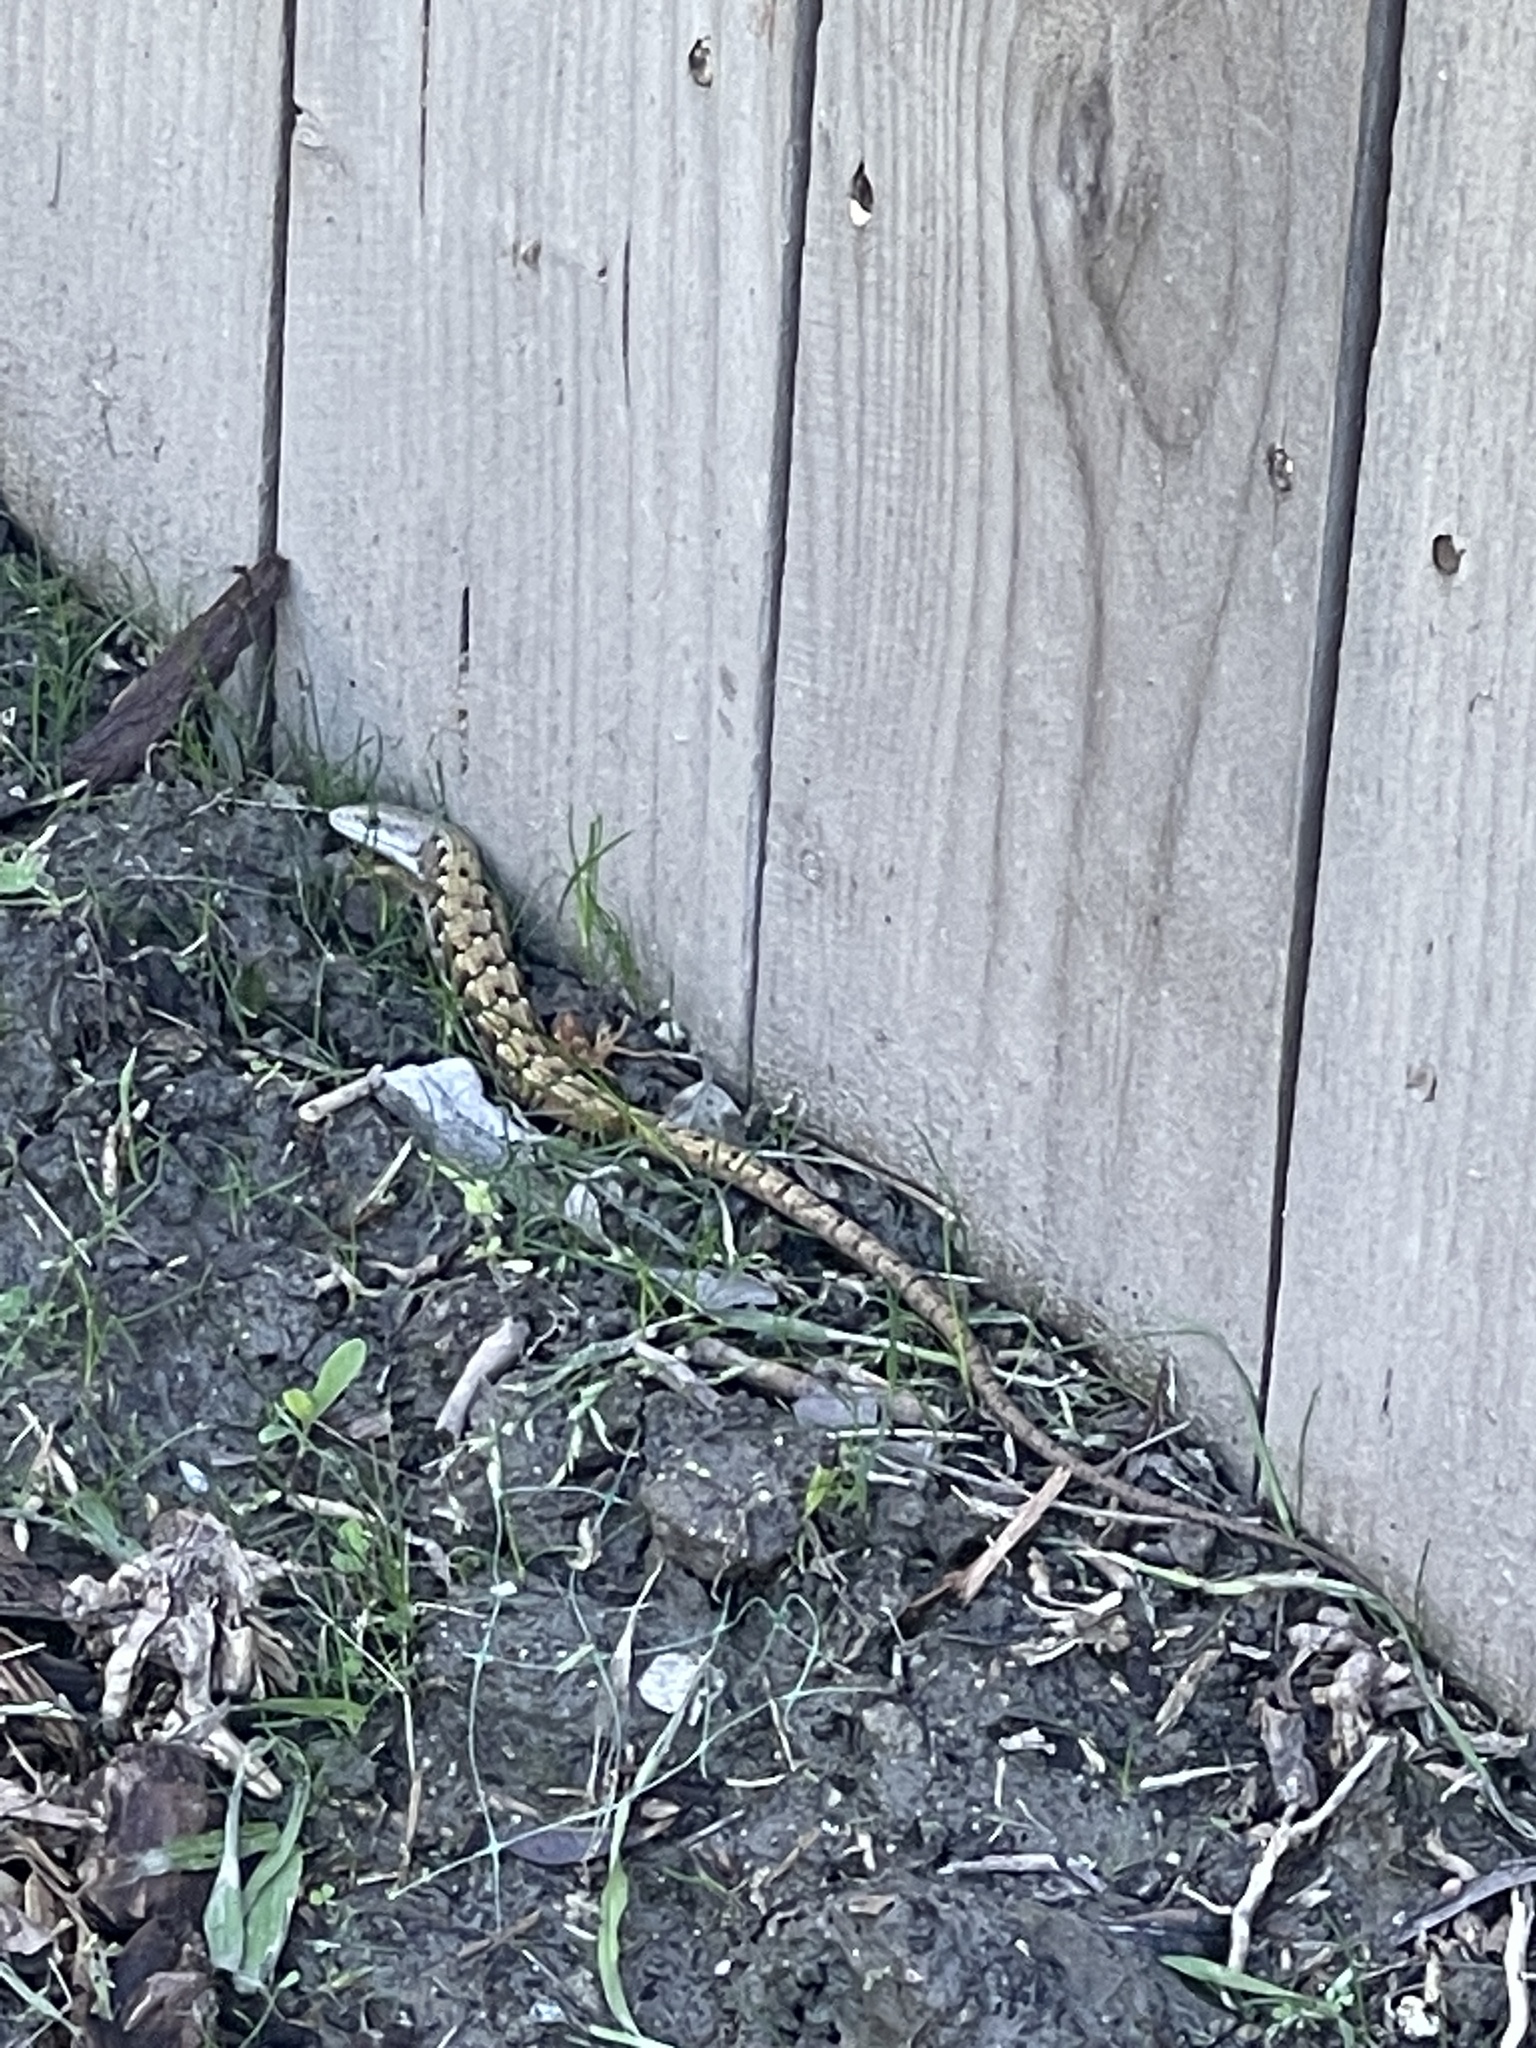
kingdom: Animalia
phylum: Chordata
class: Squamata
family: Anguidae
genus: Elgaria
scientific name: Elgaria multicarinata
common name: Southern alligator lizard
